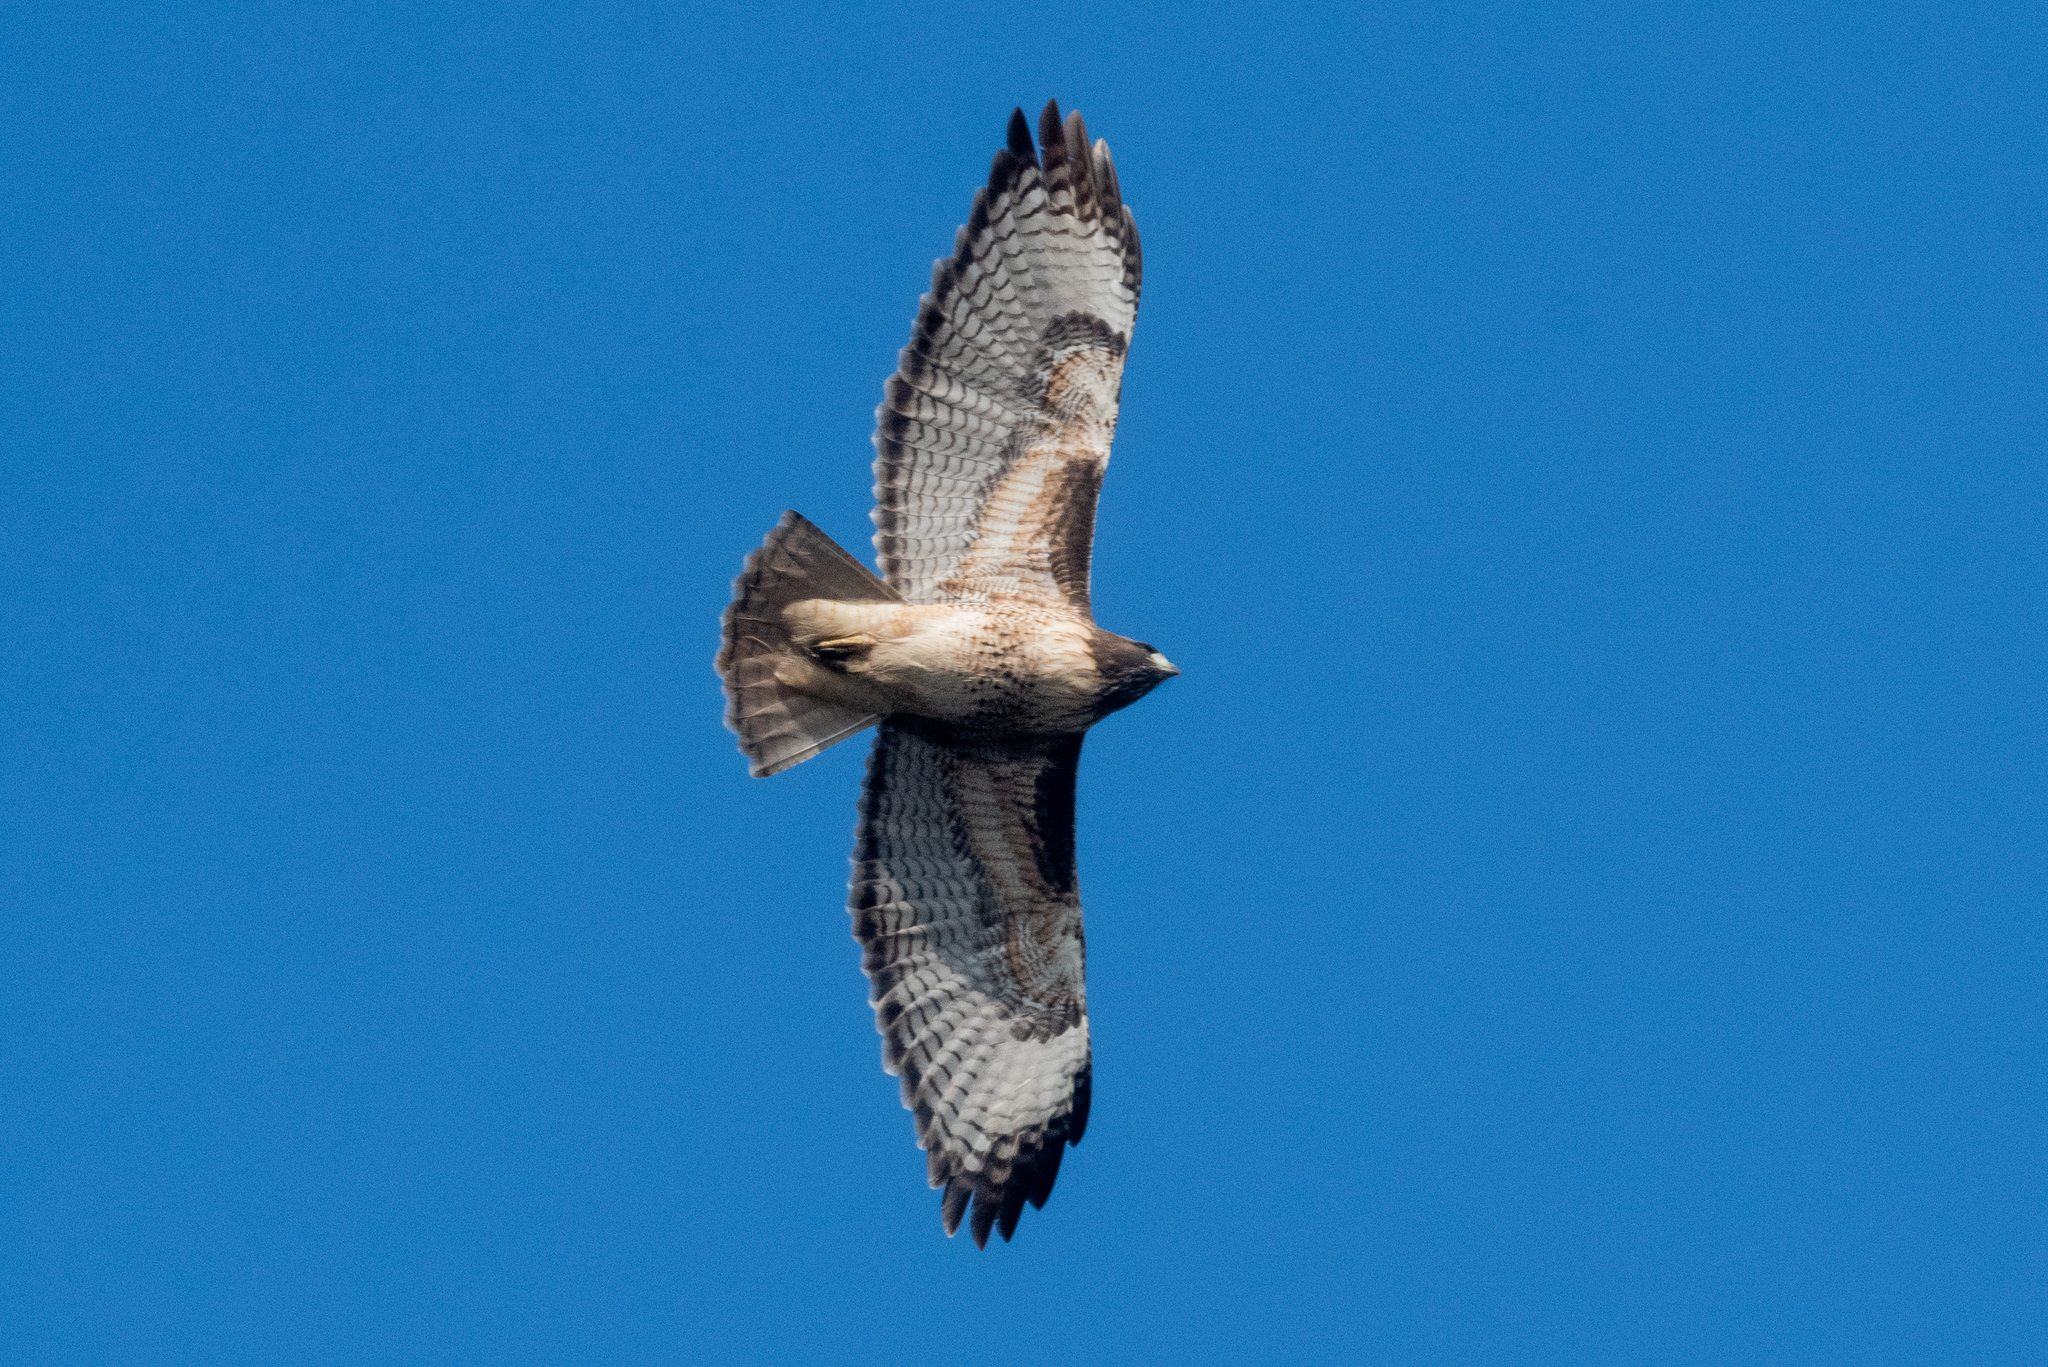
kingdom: Animalia
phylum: Chordata
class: Aves
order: Accipitriformes
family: Accipitridae
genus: Buteo
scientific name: Buteo jamaicensis
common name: Red-tailed hawk
